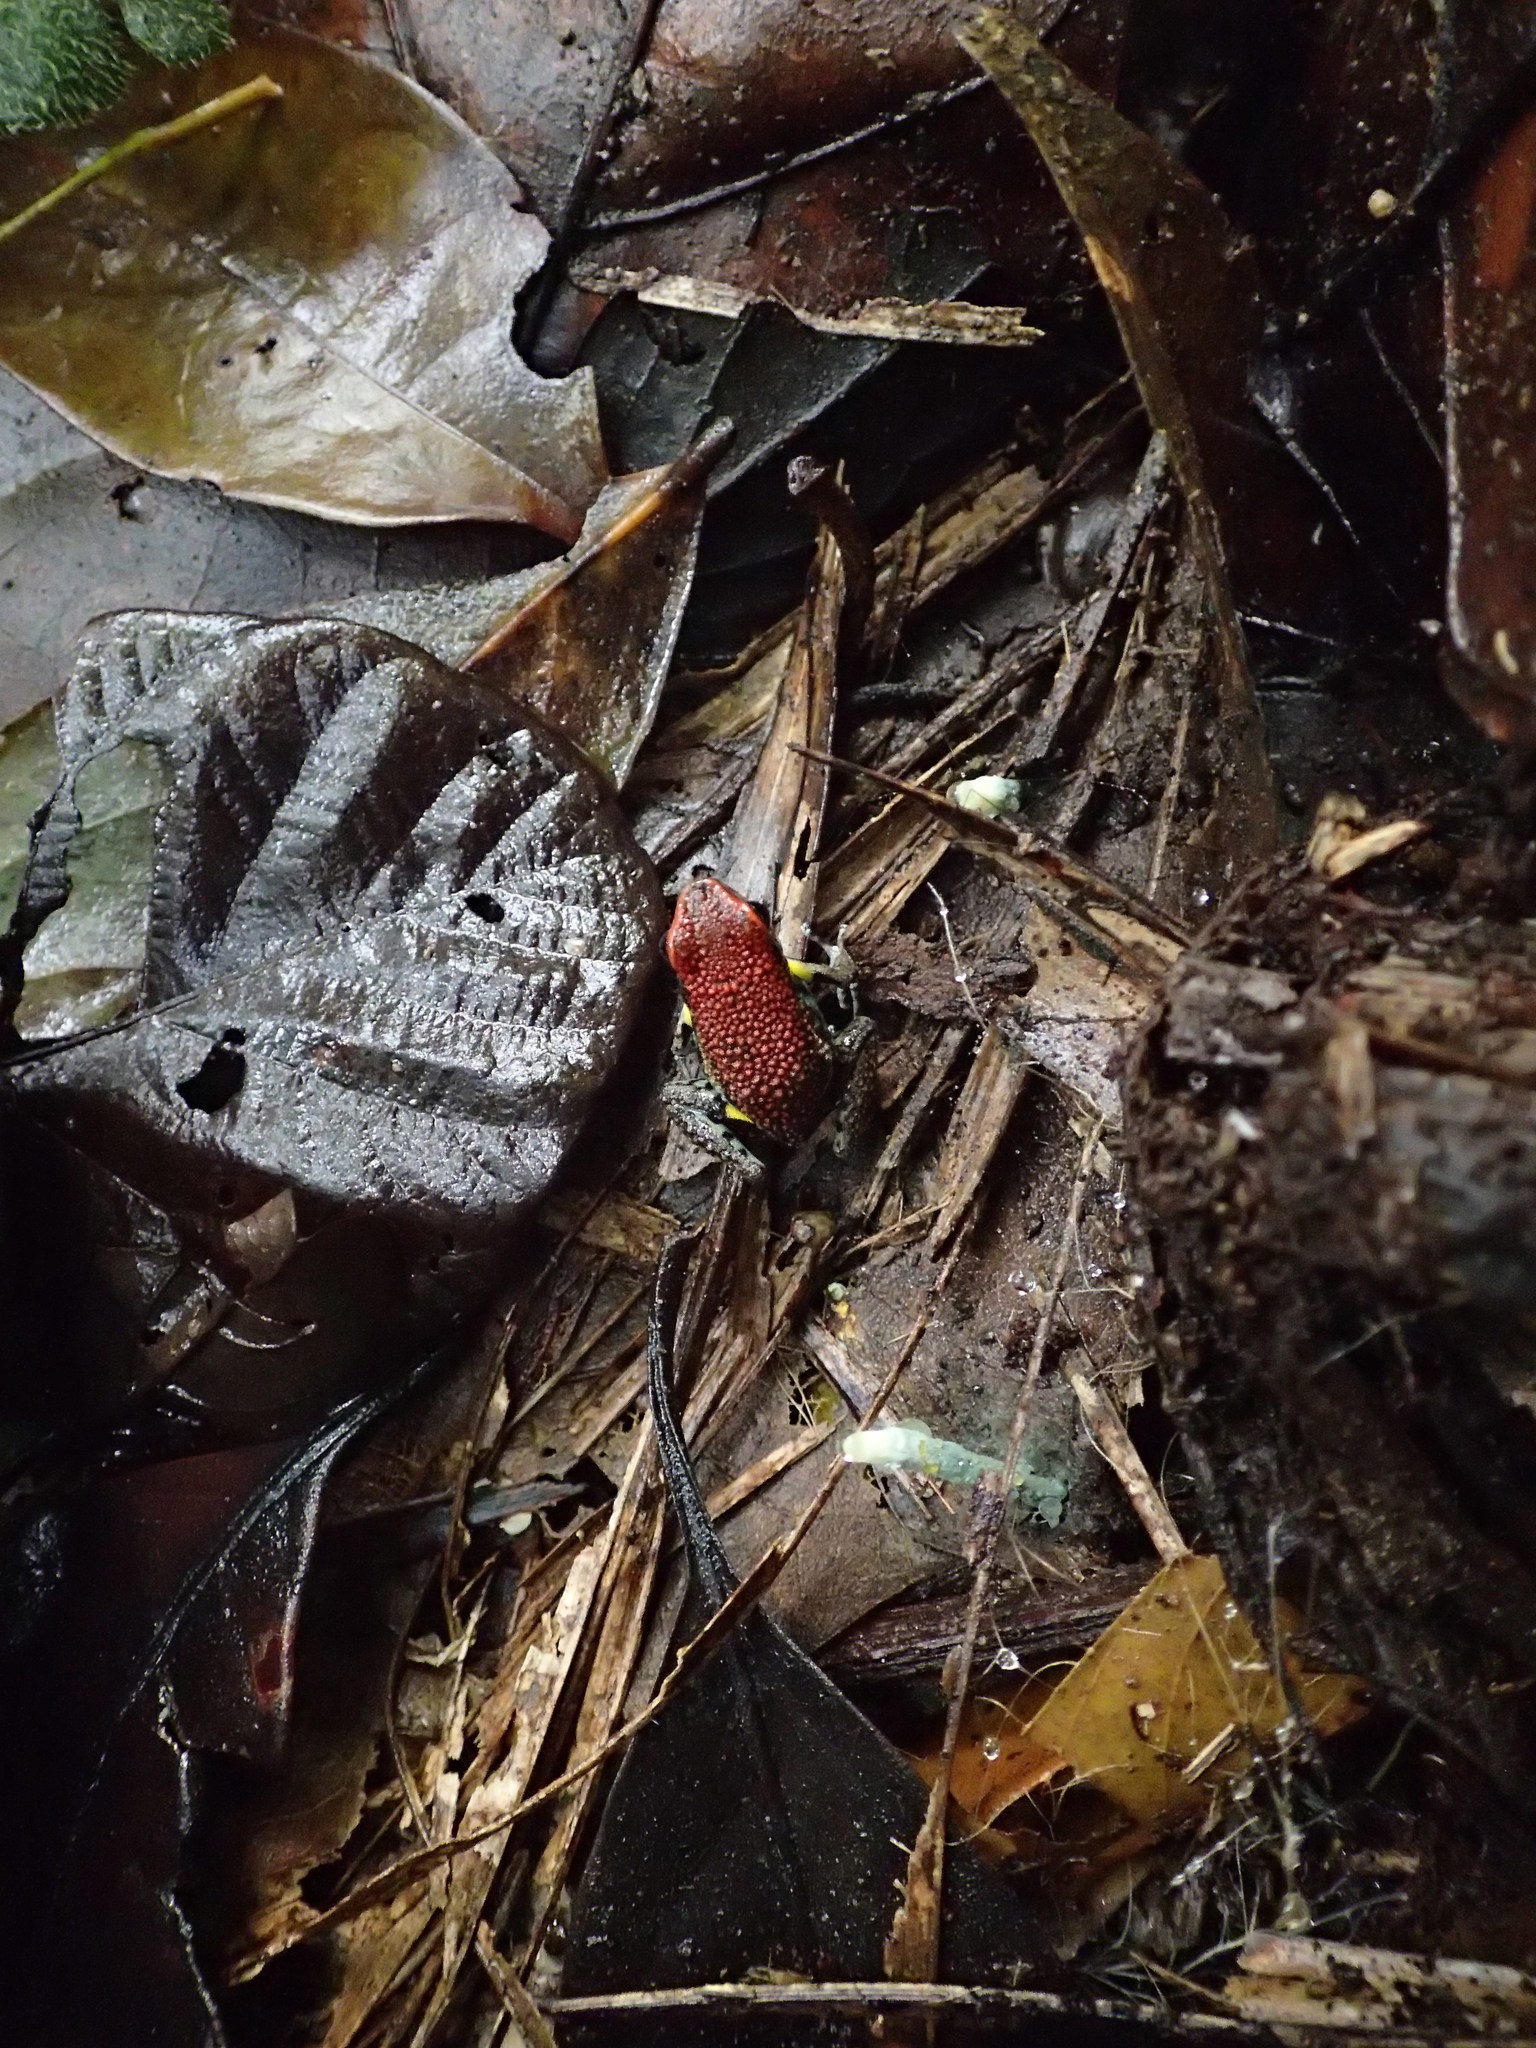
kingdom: Animalia
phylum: Chordata
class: Amphibia
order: Anura
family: Dendrobatidae
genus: Ameerega
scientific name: Ameerega bilinguis
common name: Ecuadorean poison frog
